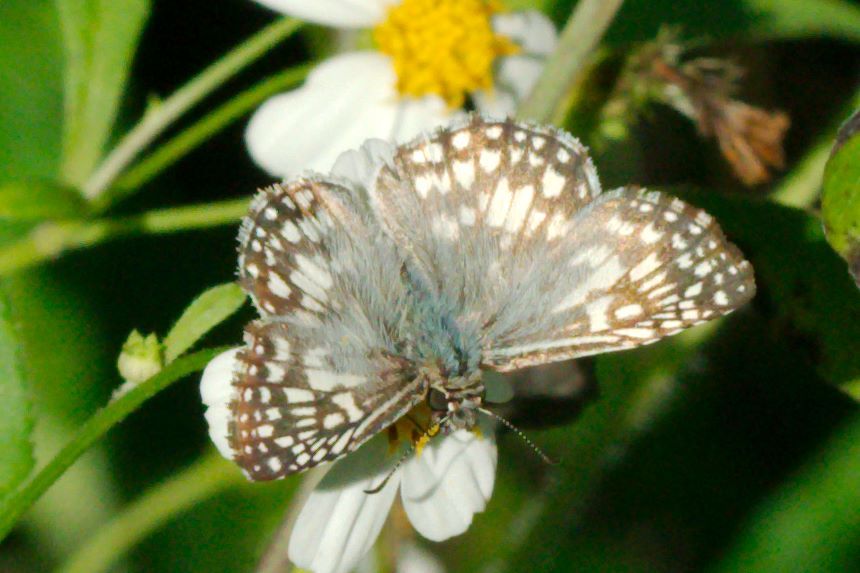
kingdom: Animalia
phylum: Arthropoda
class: Insecta
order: Lepidoptera
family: Hesperiidae
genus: Pyrgus
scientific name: Pyrgus oileus
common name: Tropical checkered-skipper
